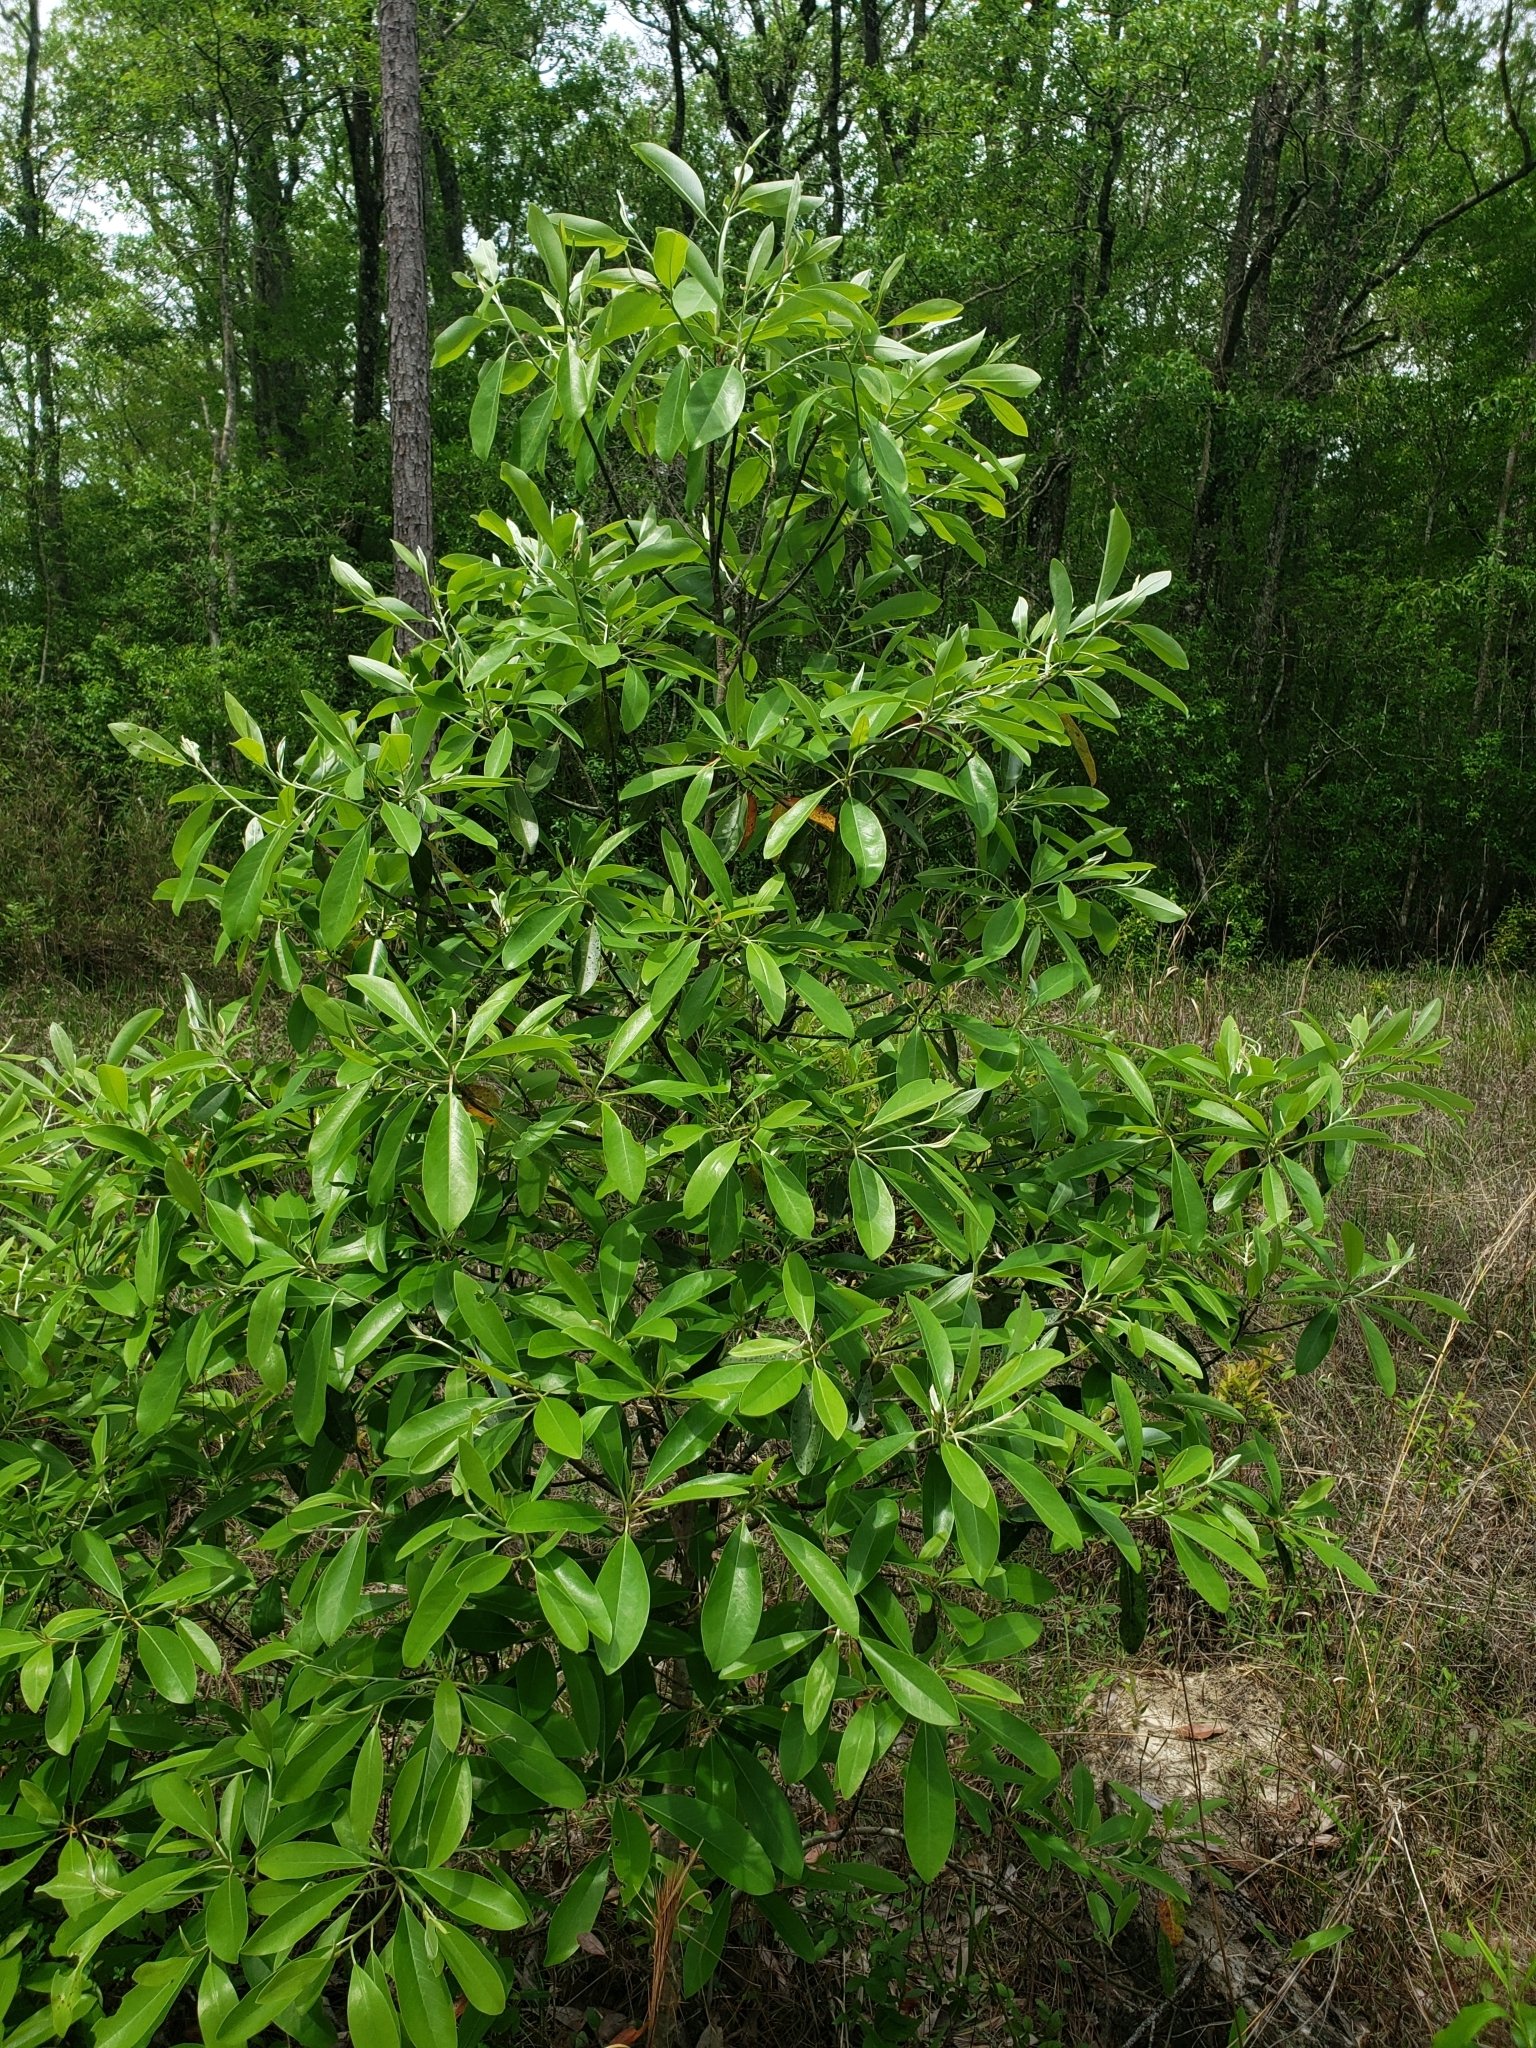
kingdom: Plantae
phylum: Tracheophyta
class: Magnoliopsida
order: Magnoliales
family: Magnoliaceae
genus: Magnolia
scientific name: Magnolia virginiana
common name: Swamp bay
